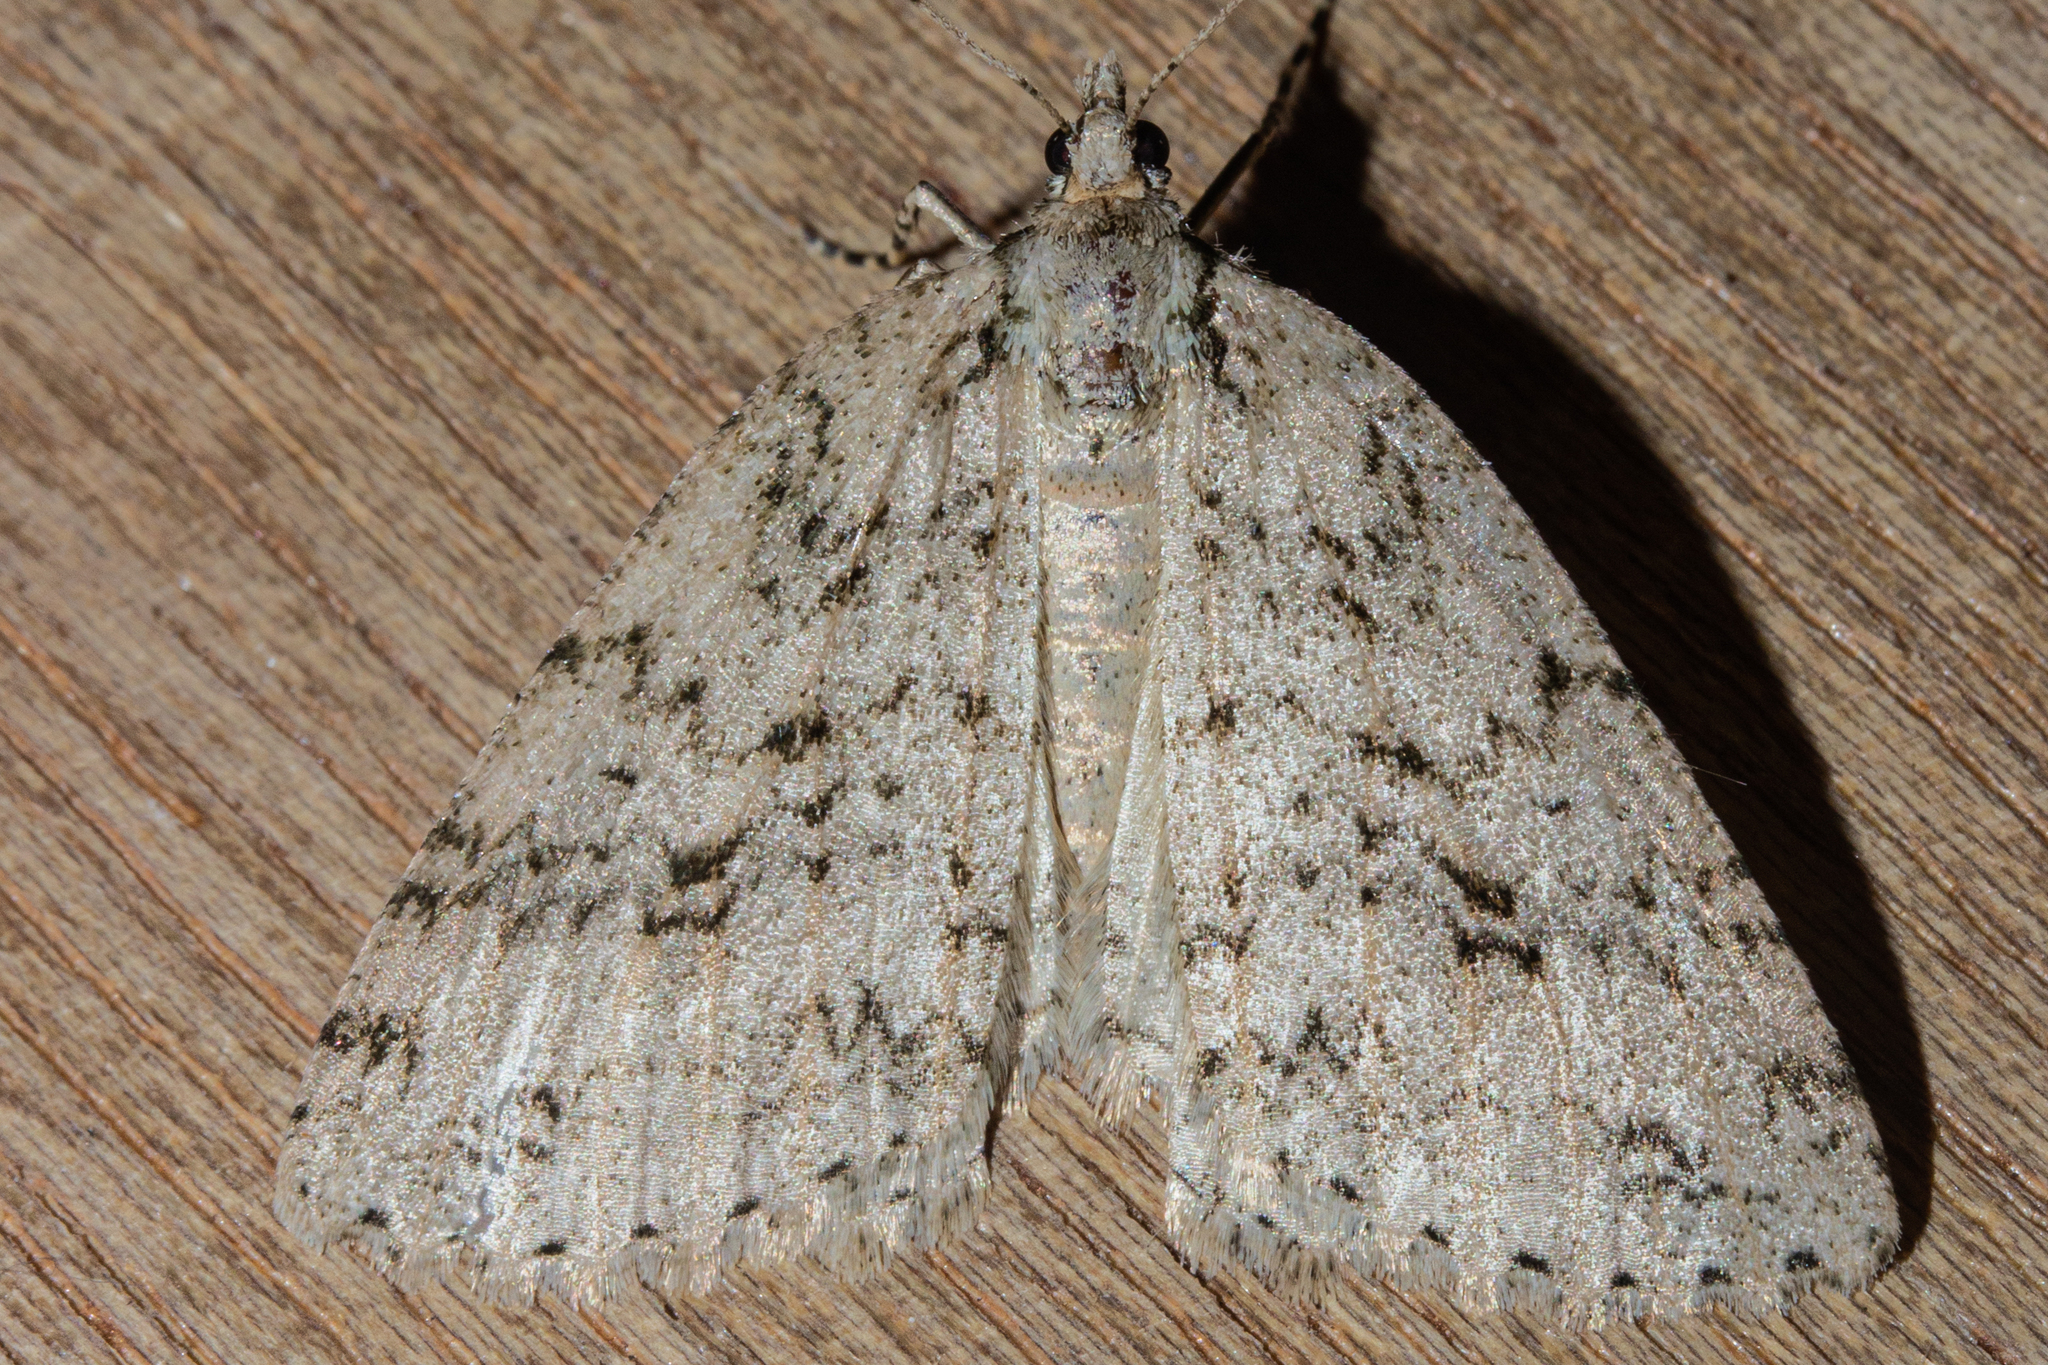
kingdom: Animalia
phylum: Arthropoda
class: Insecta
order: Lepidoptera
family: Geometridae
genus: Pseudocoremia
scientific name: Pseudocoremia rudisata
